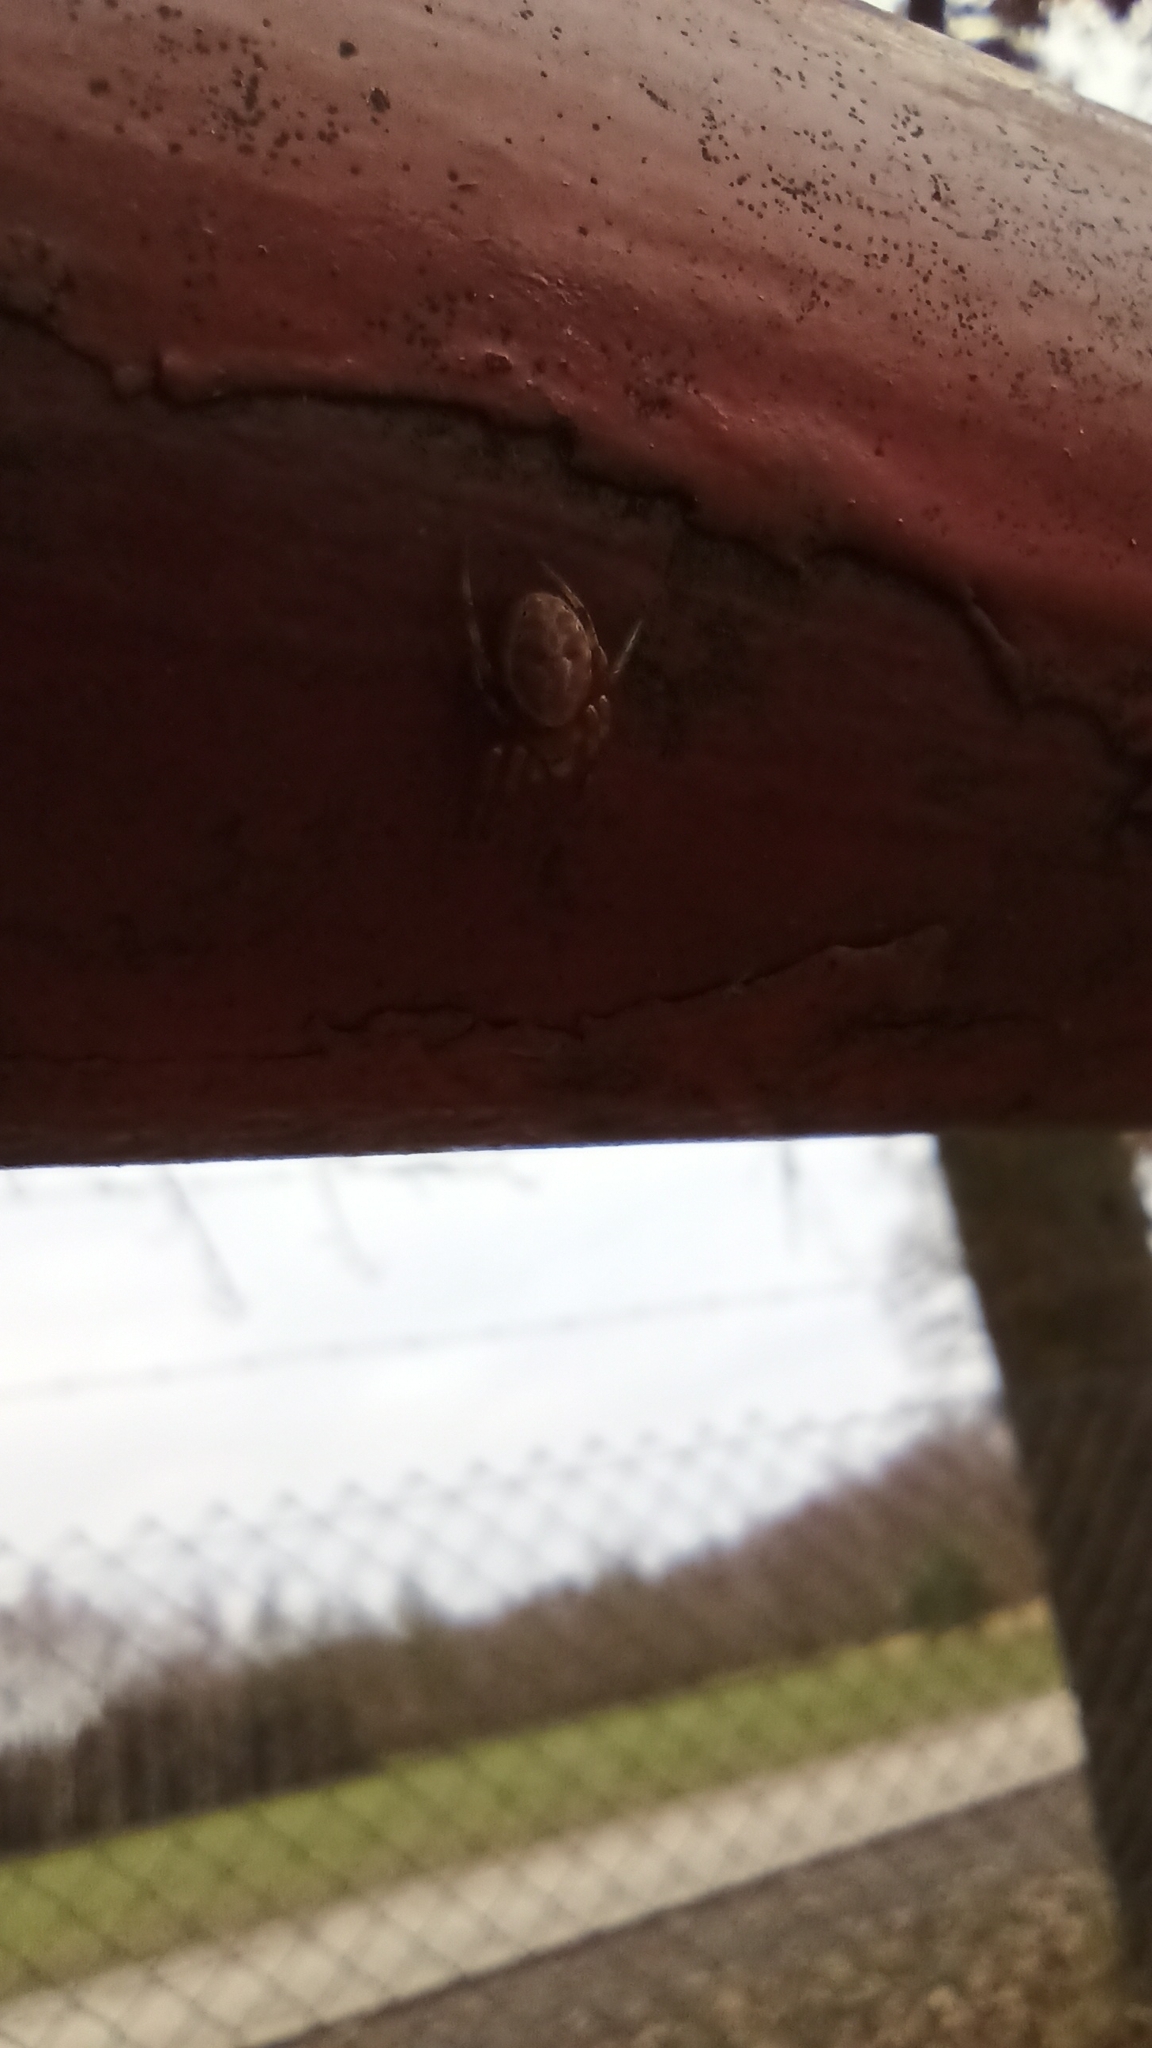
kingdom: Animalia
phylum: Arthropoda
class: Arachnida
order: Araneae
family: Araneidae
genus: Araniella
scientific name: Araniella displicata
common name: Sixspotted orb weaver
